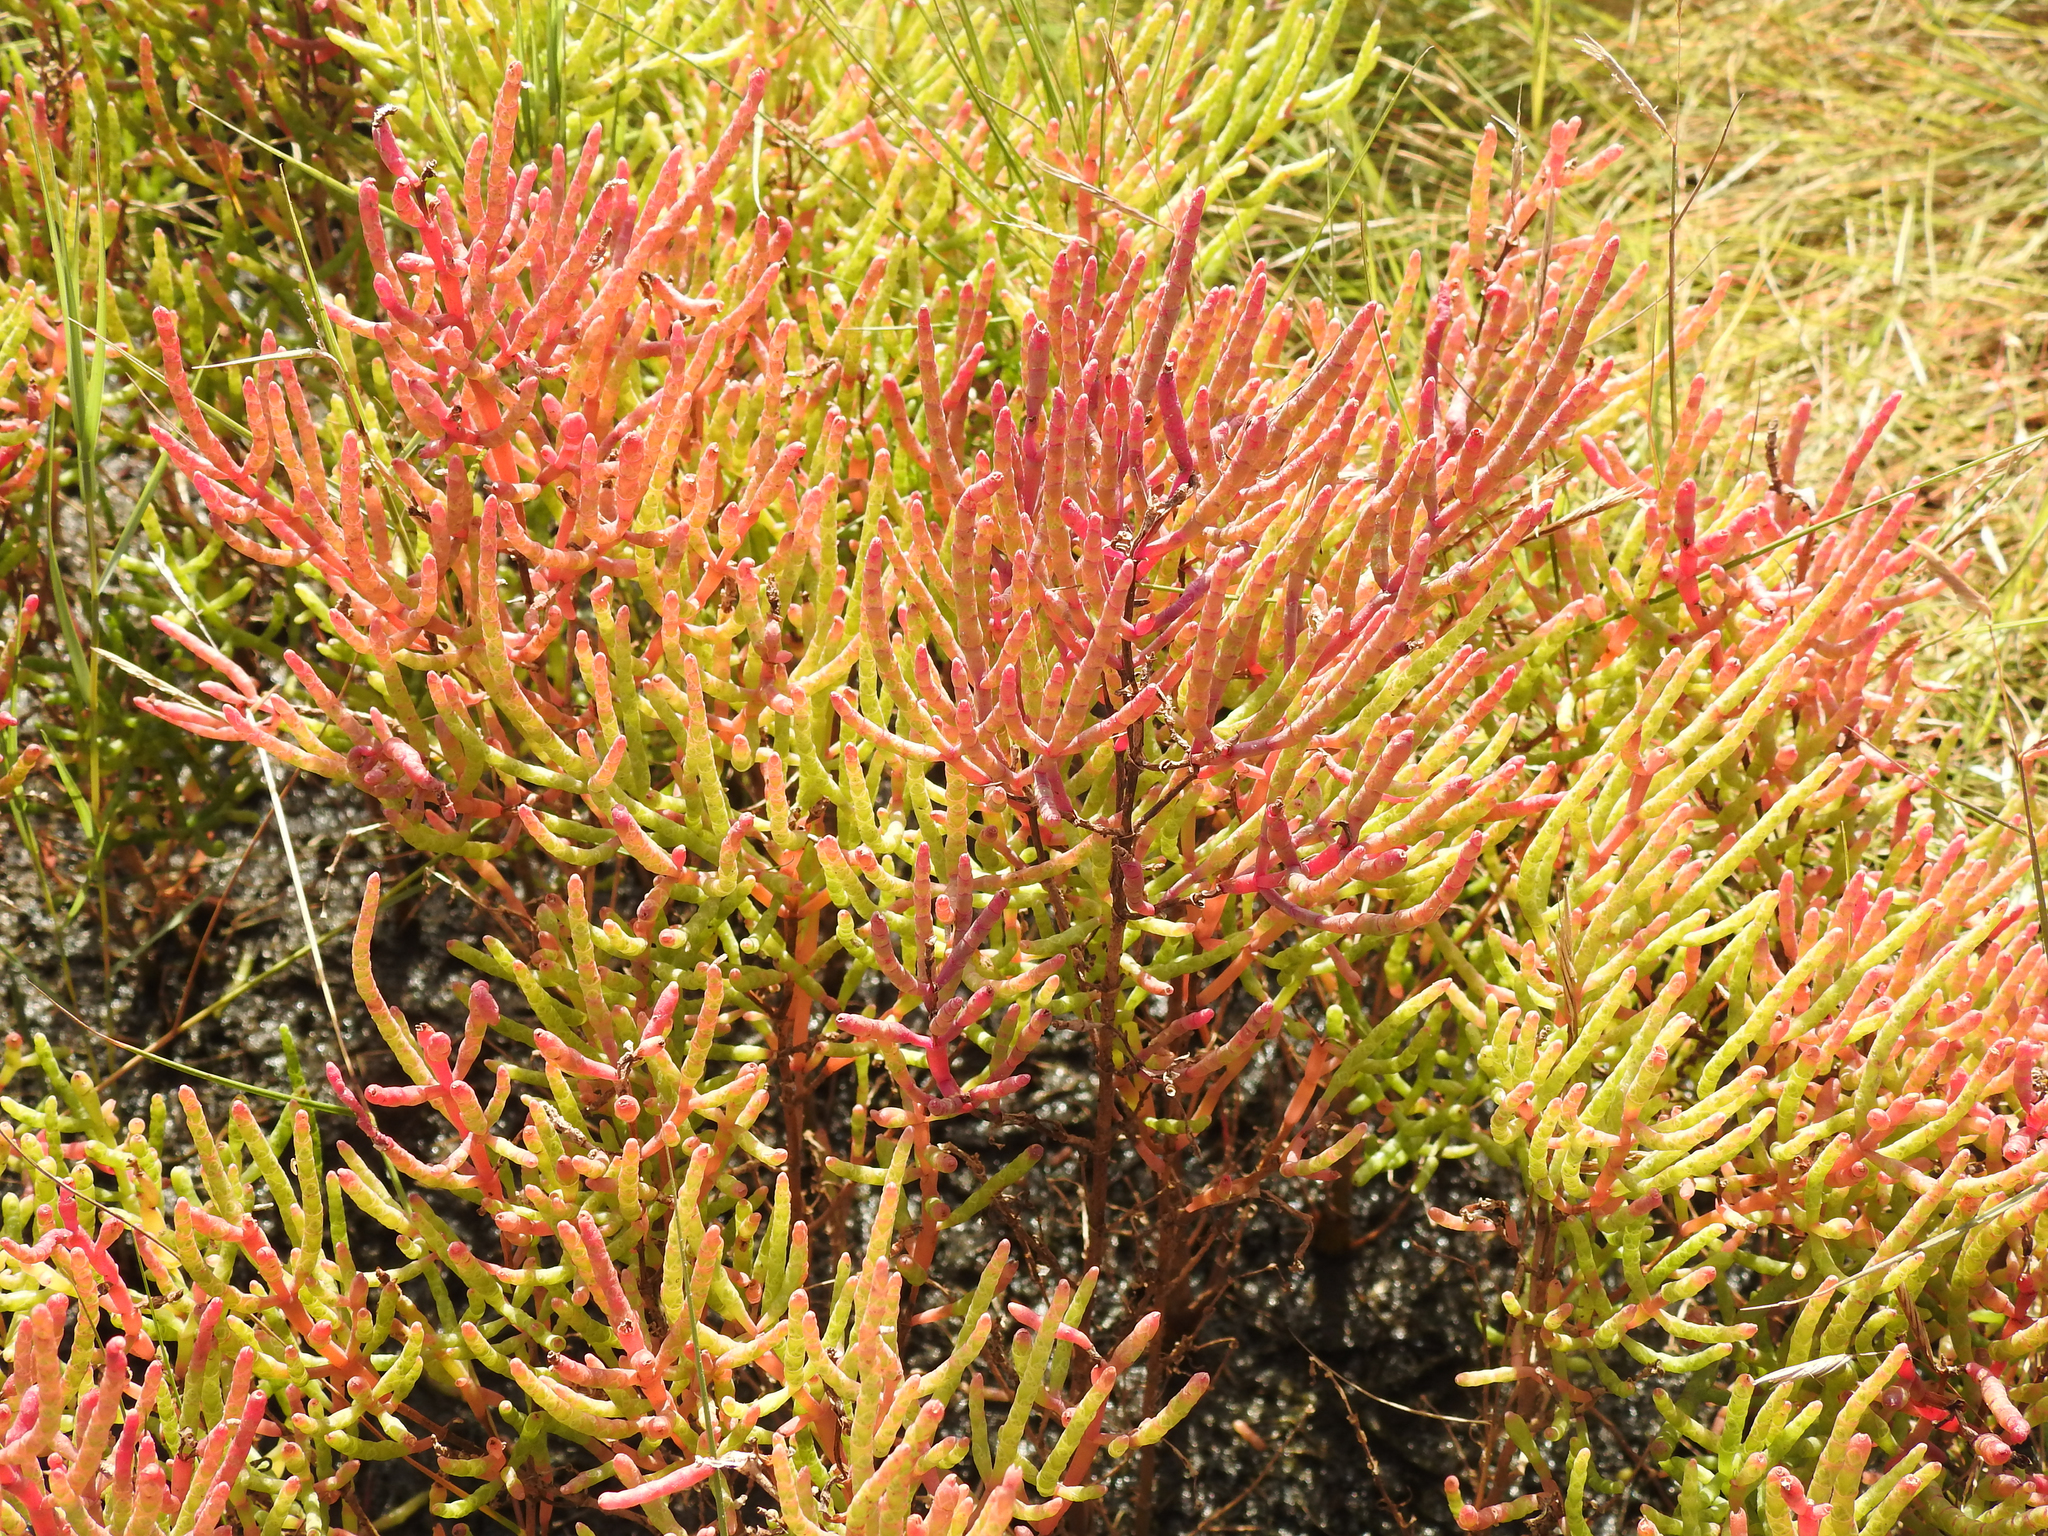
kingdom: Plantae
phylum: Tracheophyta
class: Magnoliopsida
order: Caryophyllales
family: Amaranthaceae
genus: Salicornia
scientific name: Salicornia virginica
